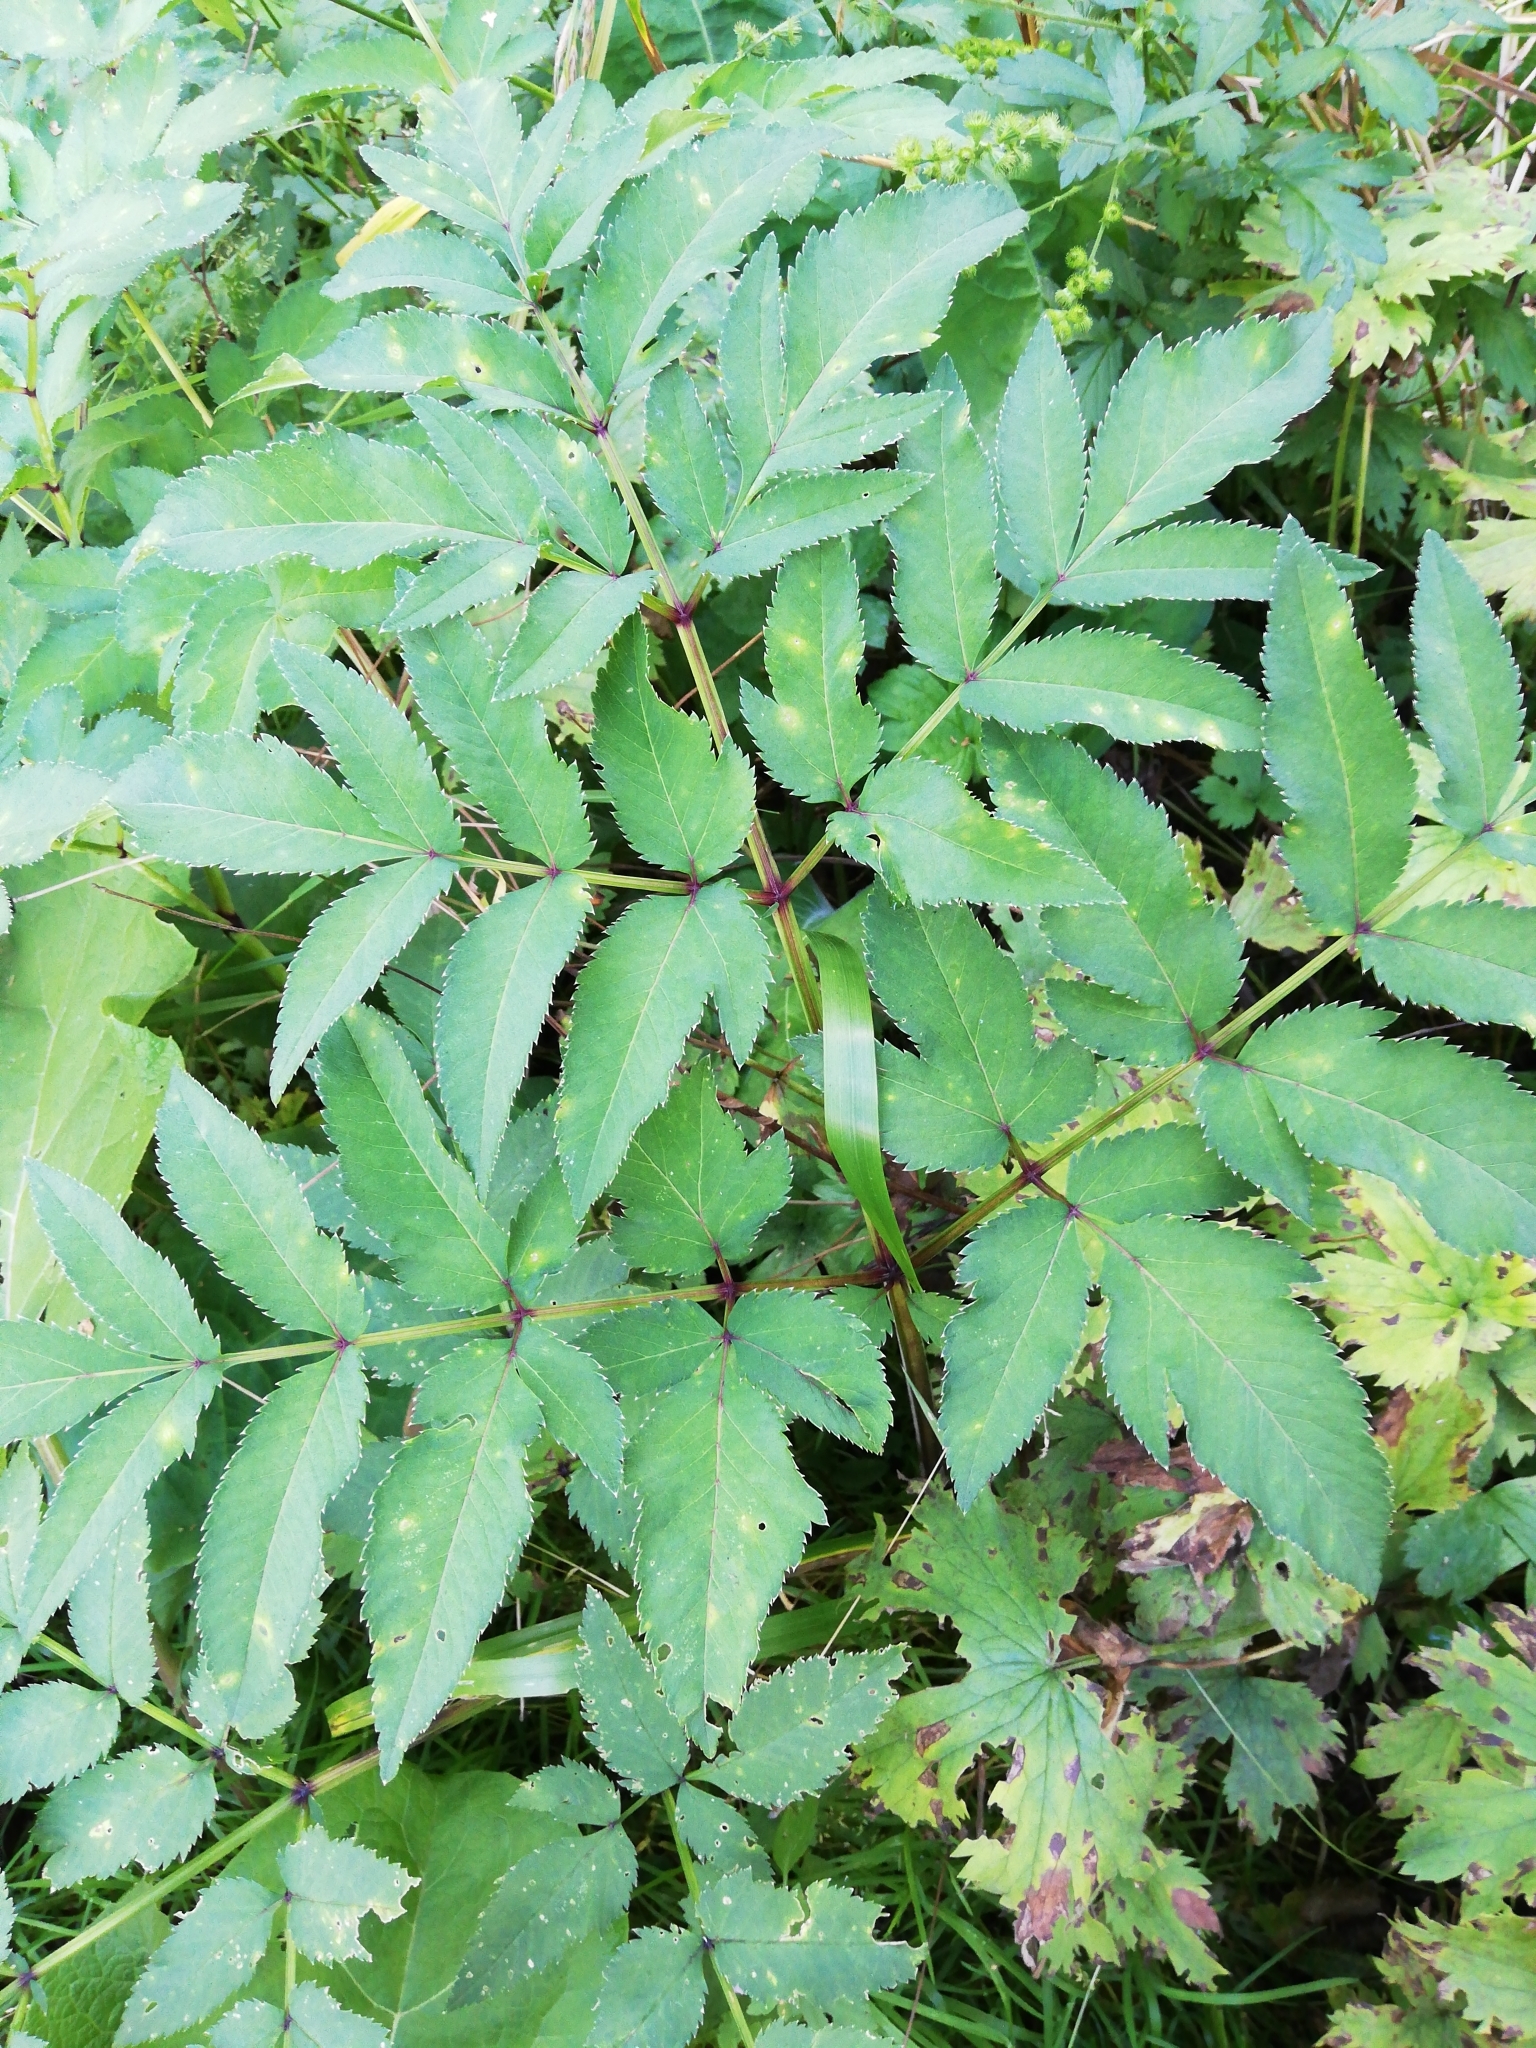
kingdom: Plantae
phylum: Tracheophyta
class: Magnoliopsida
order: Apiales
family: Apiaceae
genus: Angelica
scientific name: Angelica sylvestris
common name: Wild angelica
